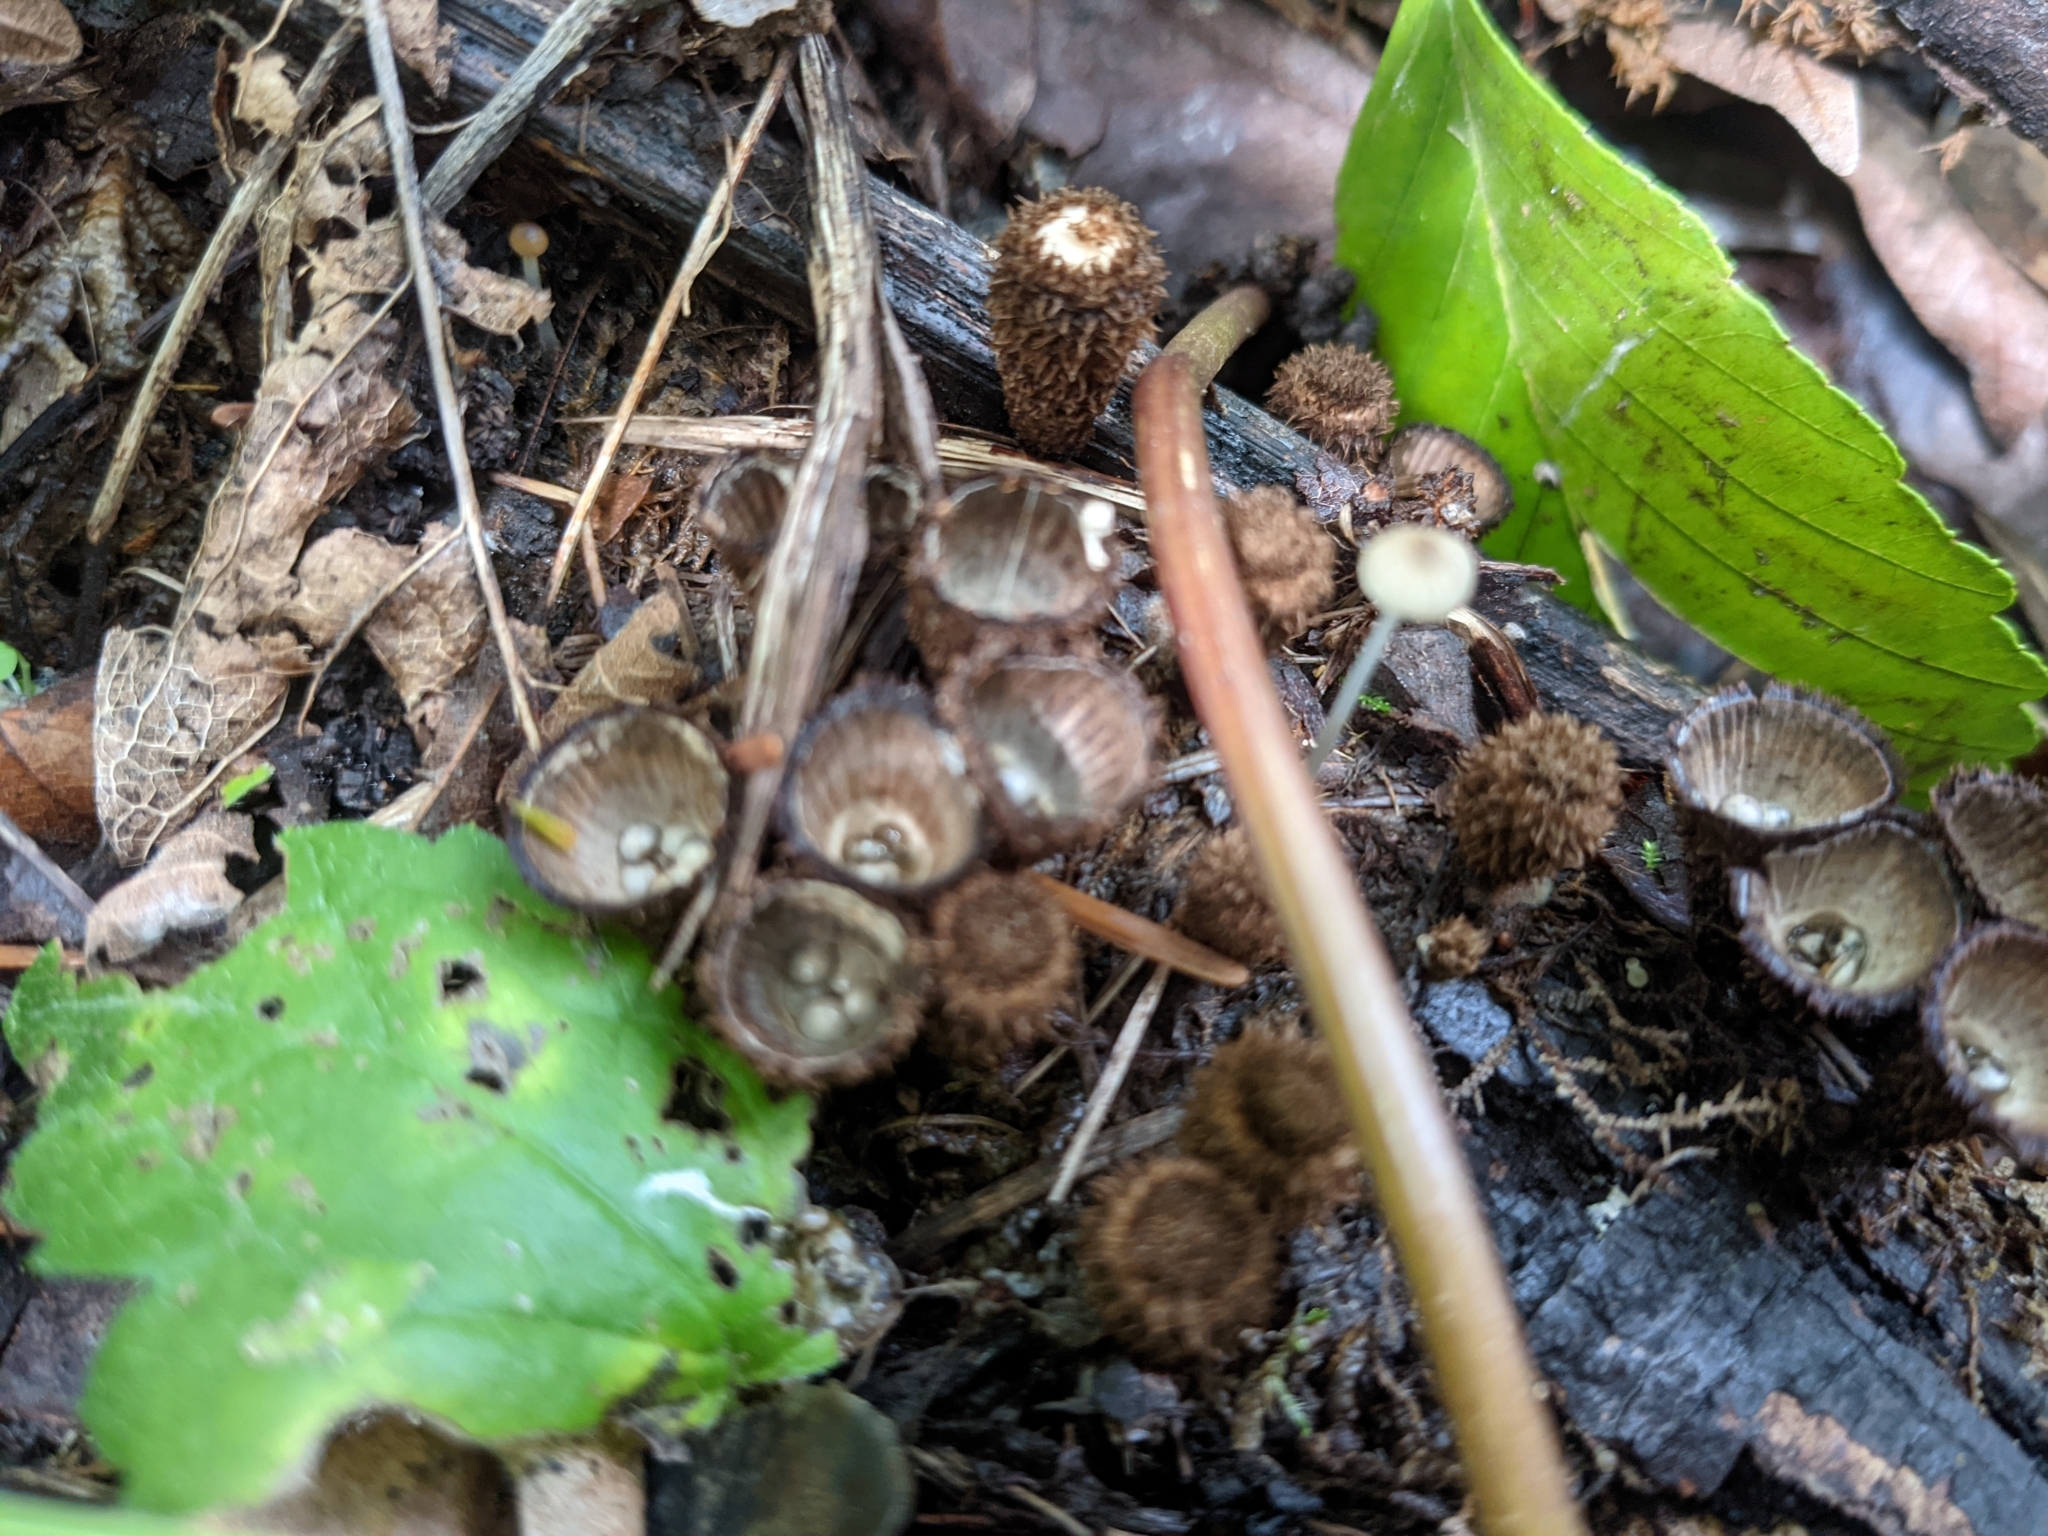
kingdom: Fungi
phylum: Basidiomycota
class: Agaricomycetes
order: Agaricales
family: Agaricaceae
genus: Cyathus
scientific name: Cyathus striatus
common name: Fluted bird's nest
